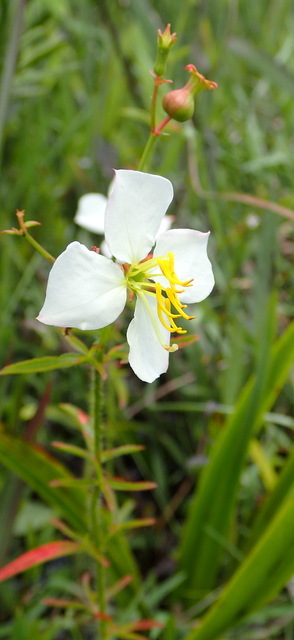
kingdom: Plantae
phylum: Tracheophyta
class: Magnoliopsida
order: Myrtales
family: Melastomataceae
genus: Rhexia
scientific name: Rhexia mariana
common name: Dull meadow-pitcher
